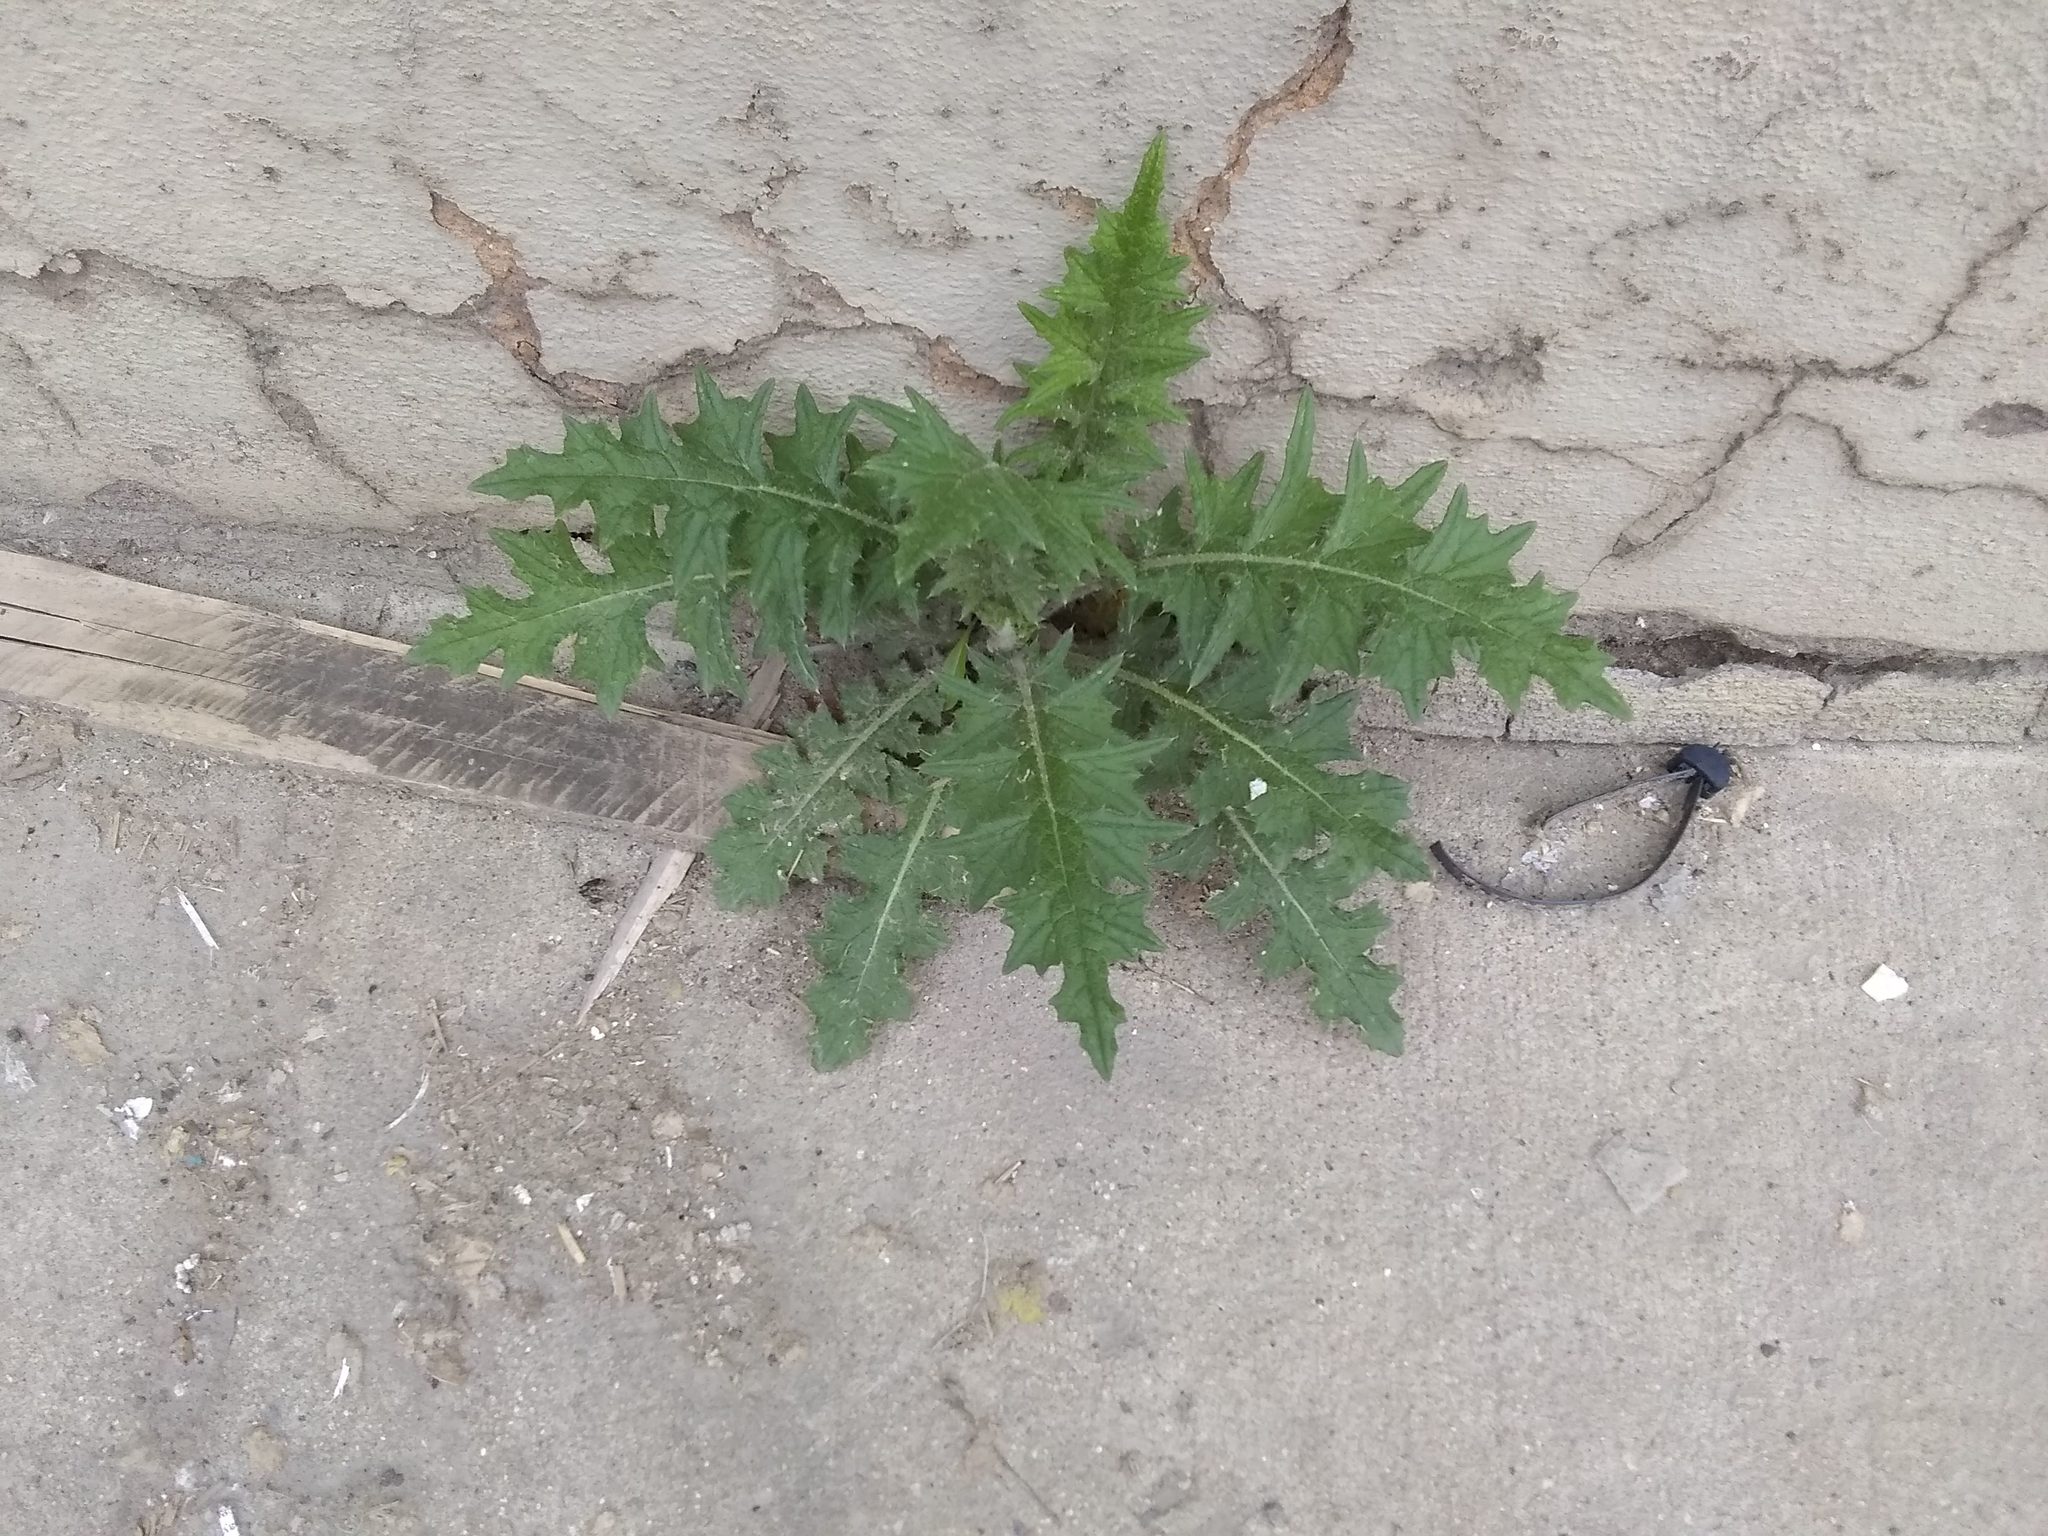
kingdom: Plantae
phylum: Tracheophyta
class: Magnoliopsida
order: Asterales
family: Asteraceae
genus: Cirsium
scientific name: Cirsium vulgare
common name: Bull thistle
